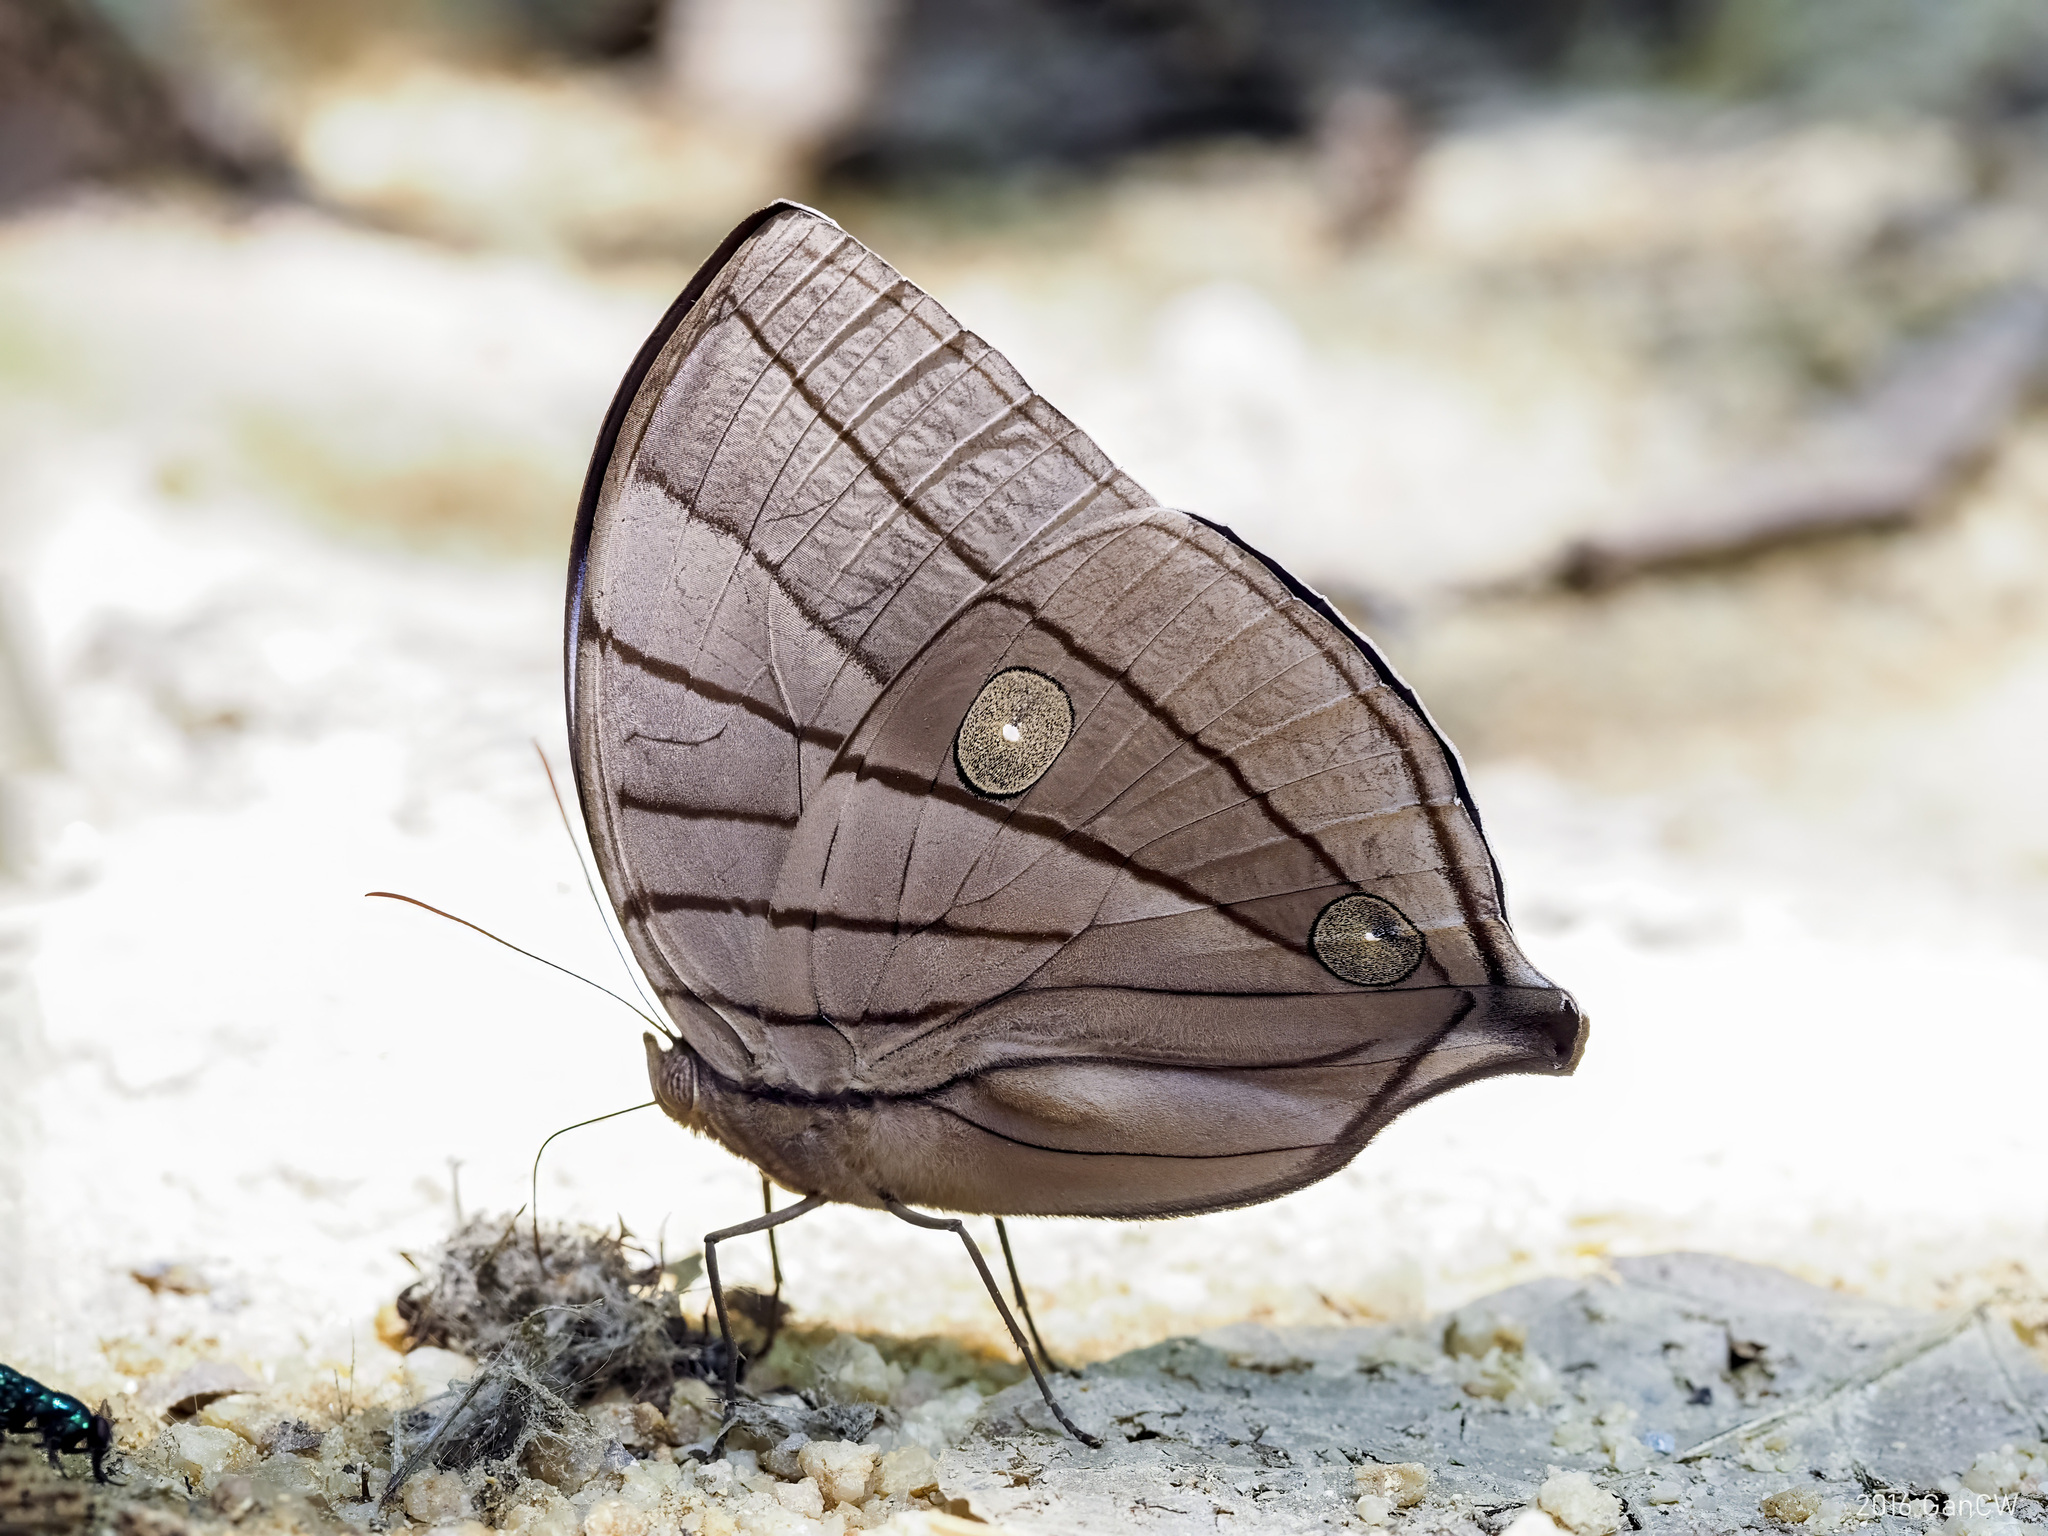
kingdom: Animalia
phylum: Arthropoda
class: Insecta
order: Lepidoptera
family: Nymphalidae
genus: Amathuxidia
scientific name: Amathuxidia amythaon
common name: Koh-i-noor
